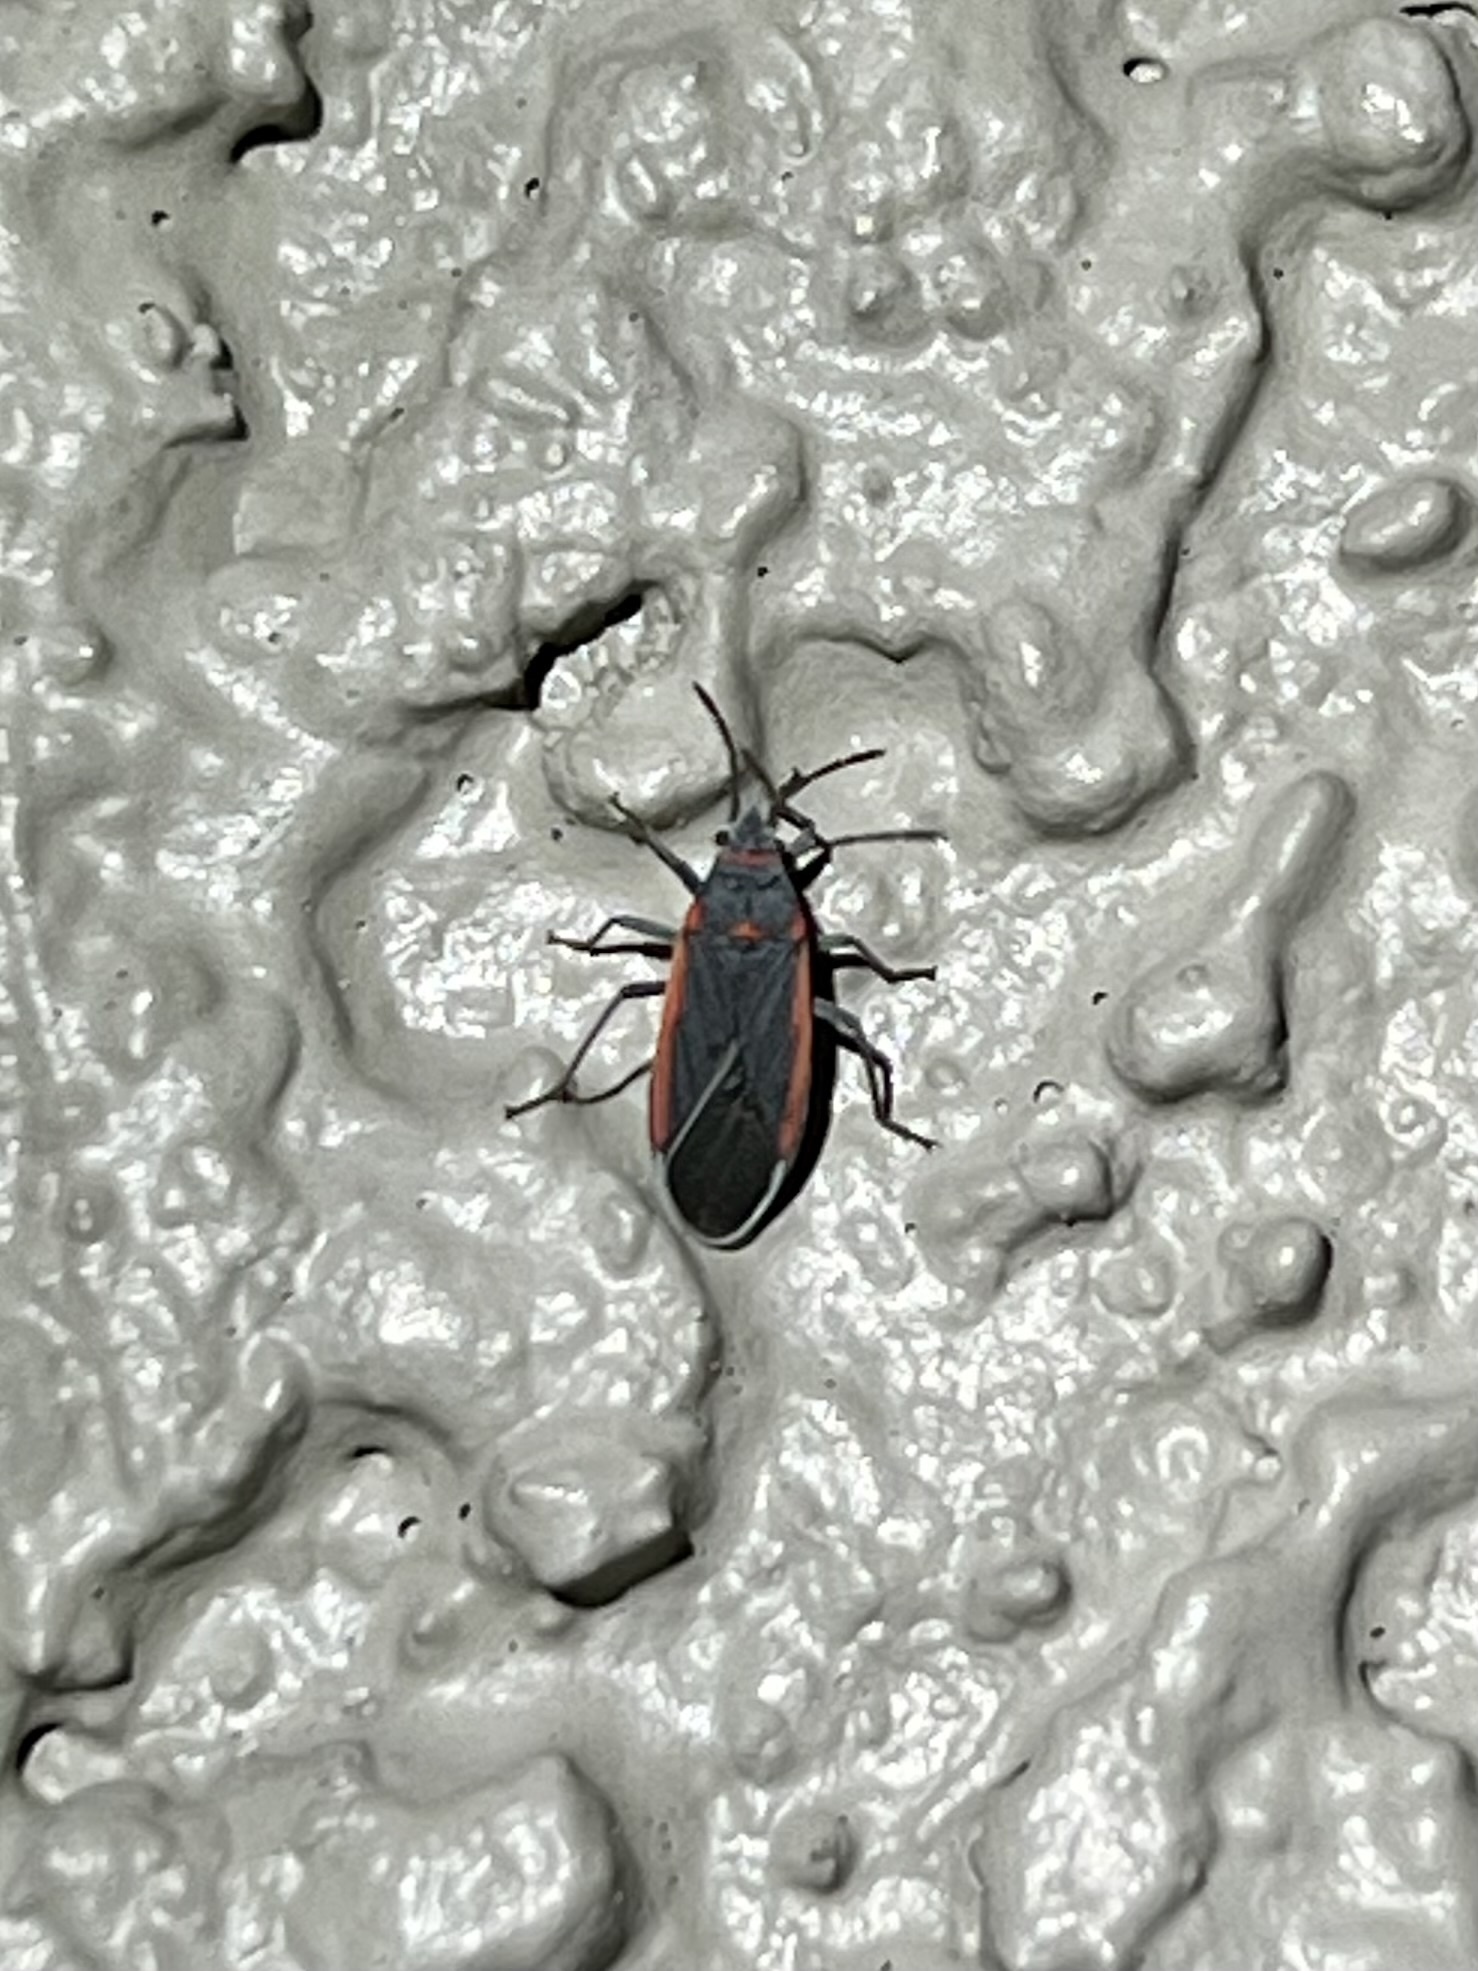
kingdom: Animalia
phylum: Arthropoda
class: Insecta
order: Hemiptera
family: Lygaeidae
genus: Melacoryphus
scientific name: Melacoryphus lateralis
